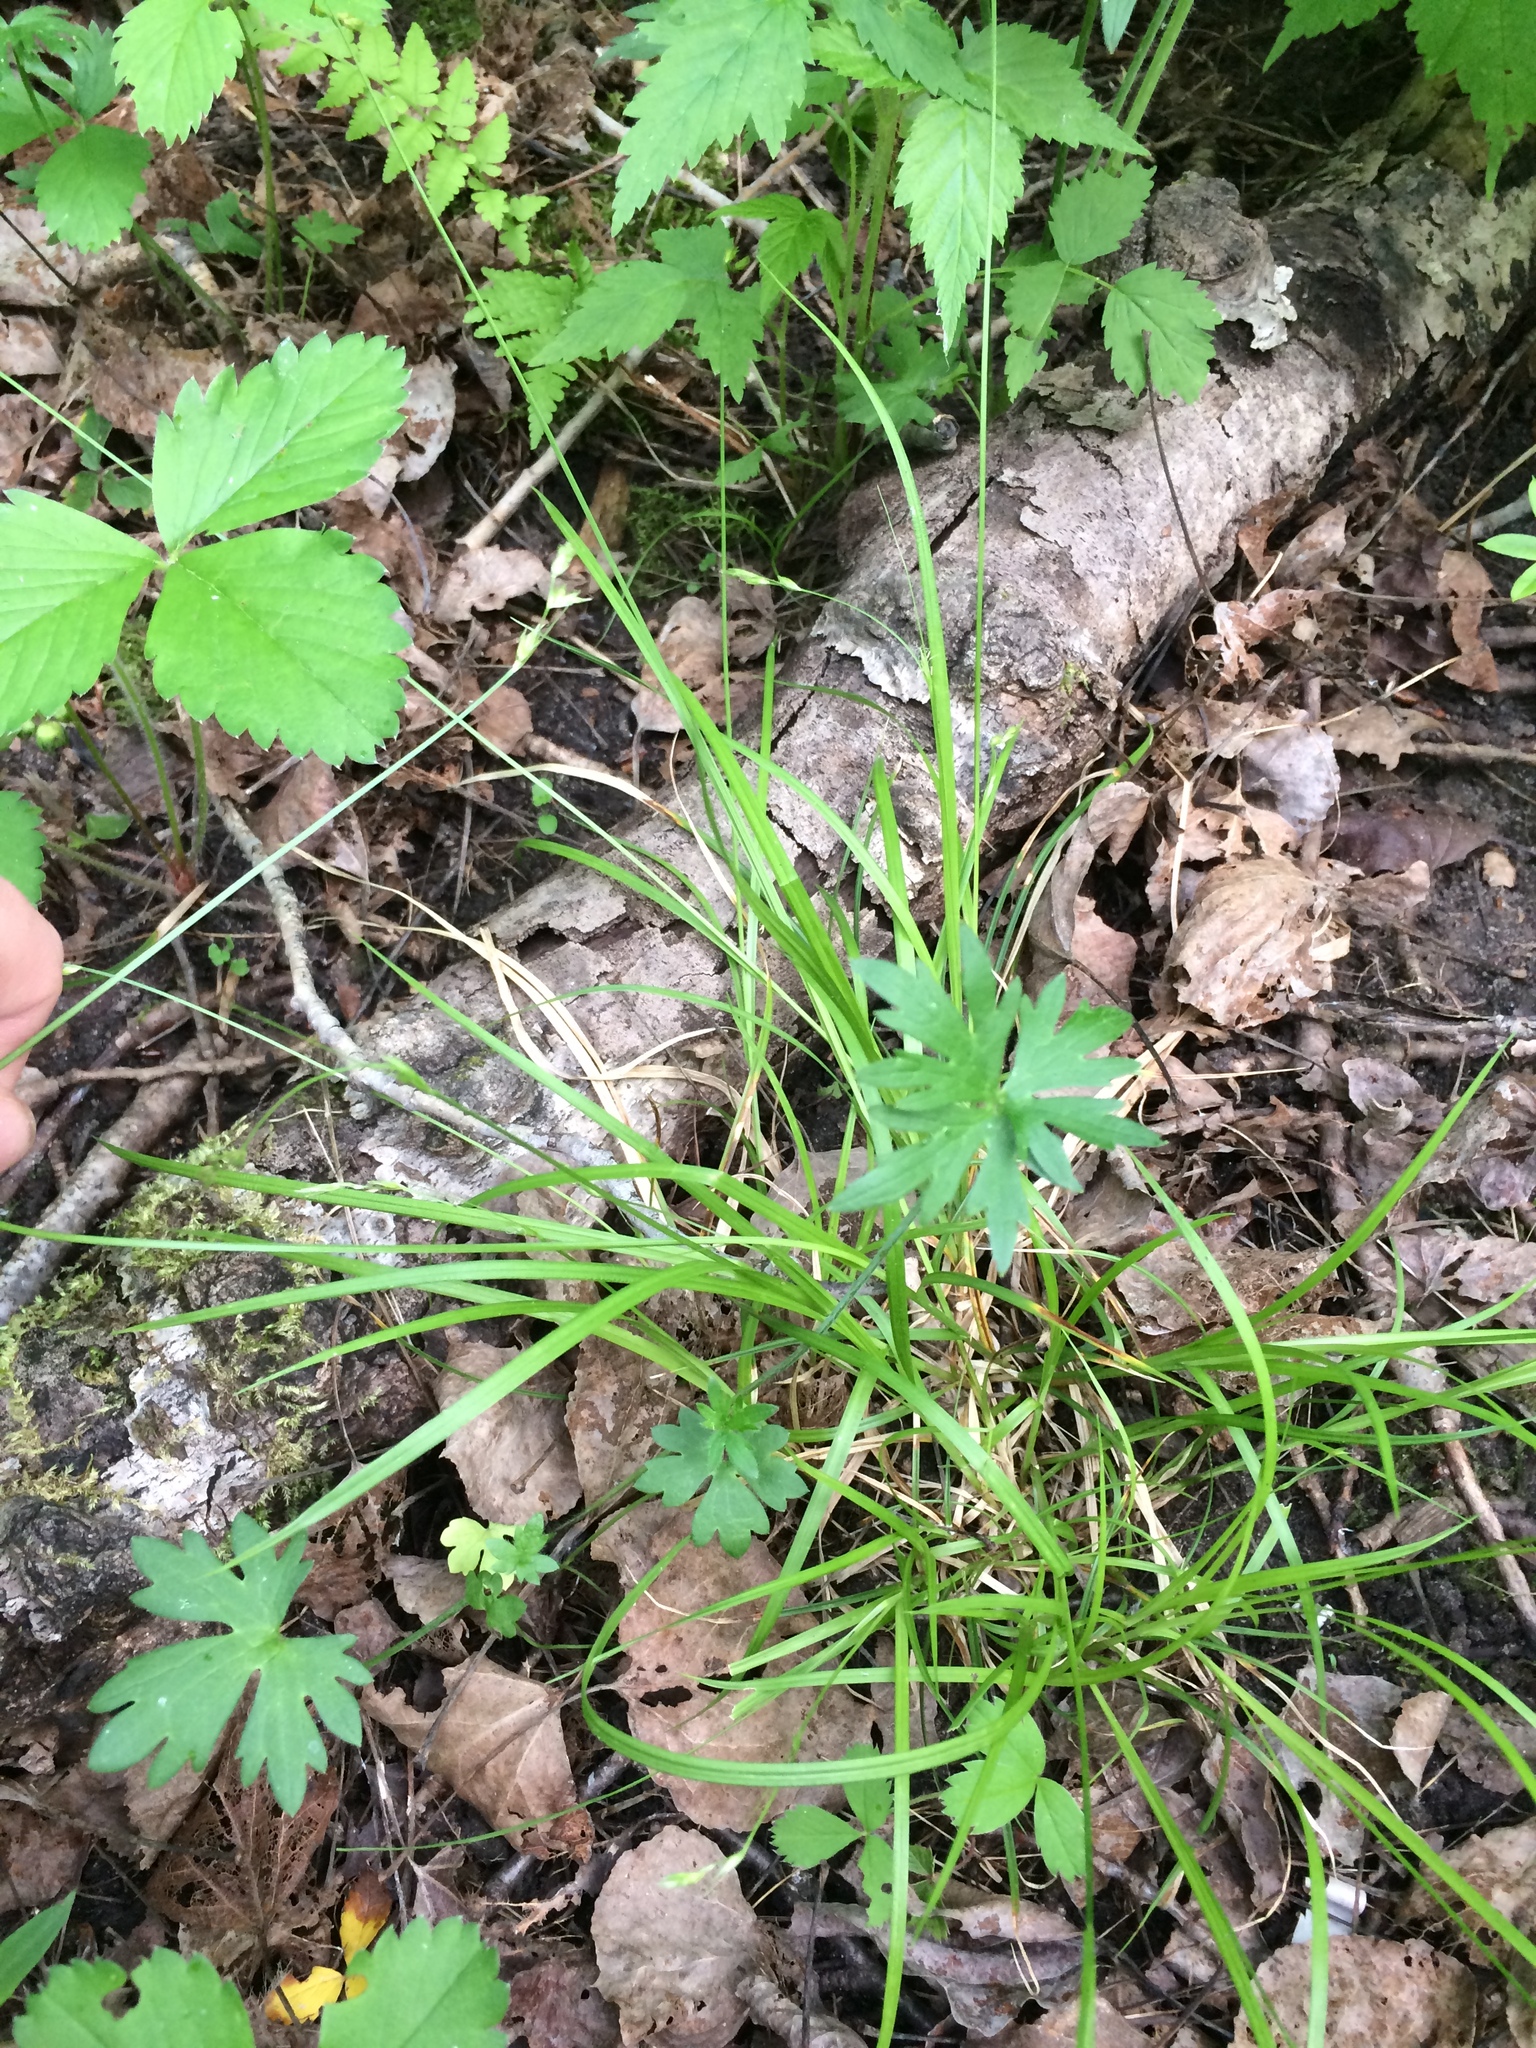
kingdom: Plantae
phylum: Tracheophyta
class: Liliopsida
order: Poales
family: Cyperaceae
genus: Carex
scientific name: Carex deweyana
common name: Dewey's sedge
